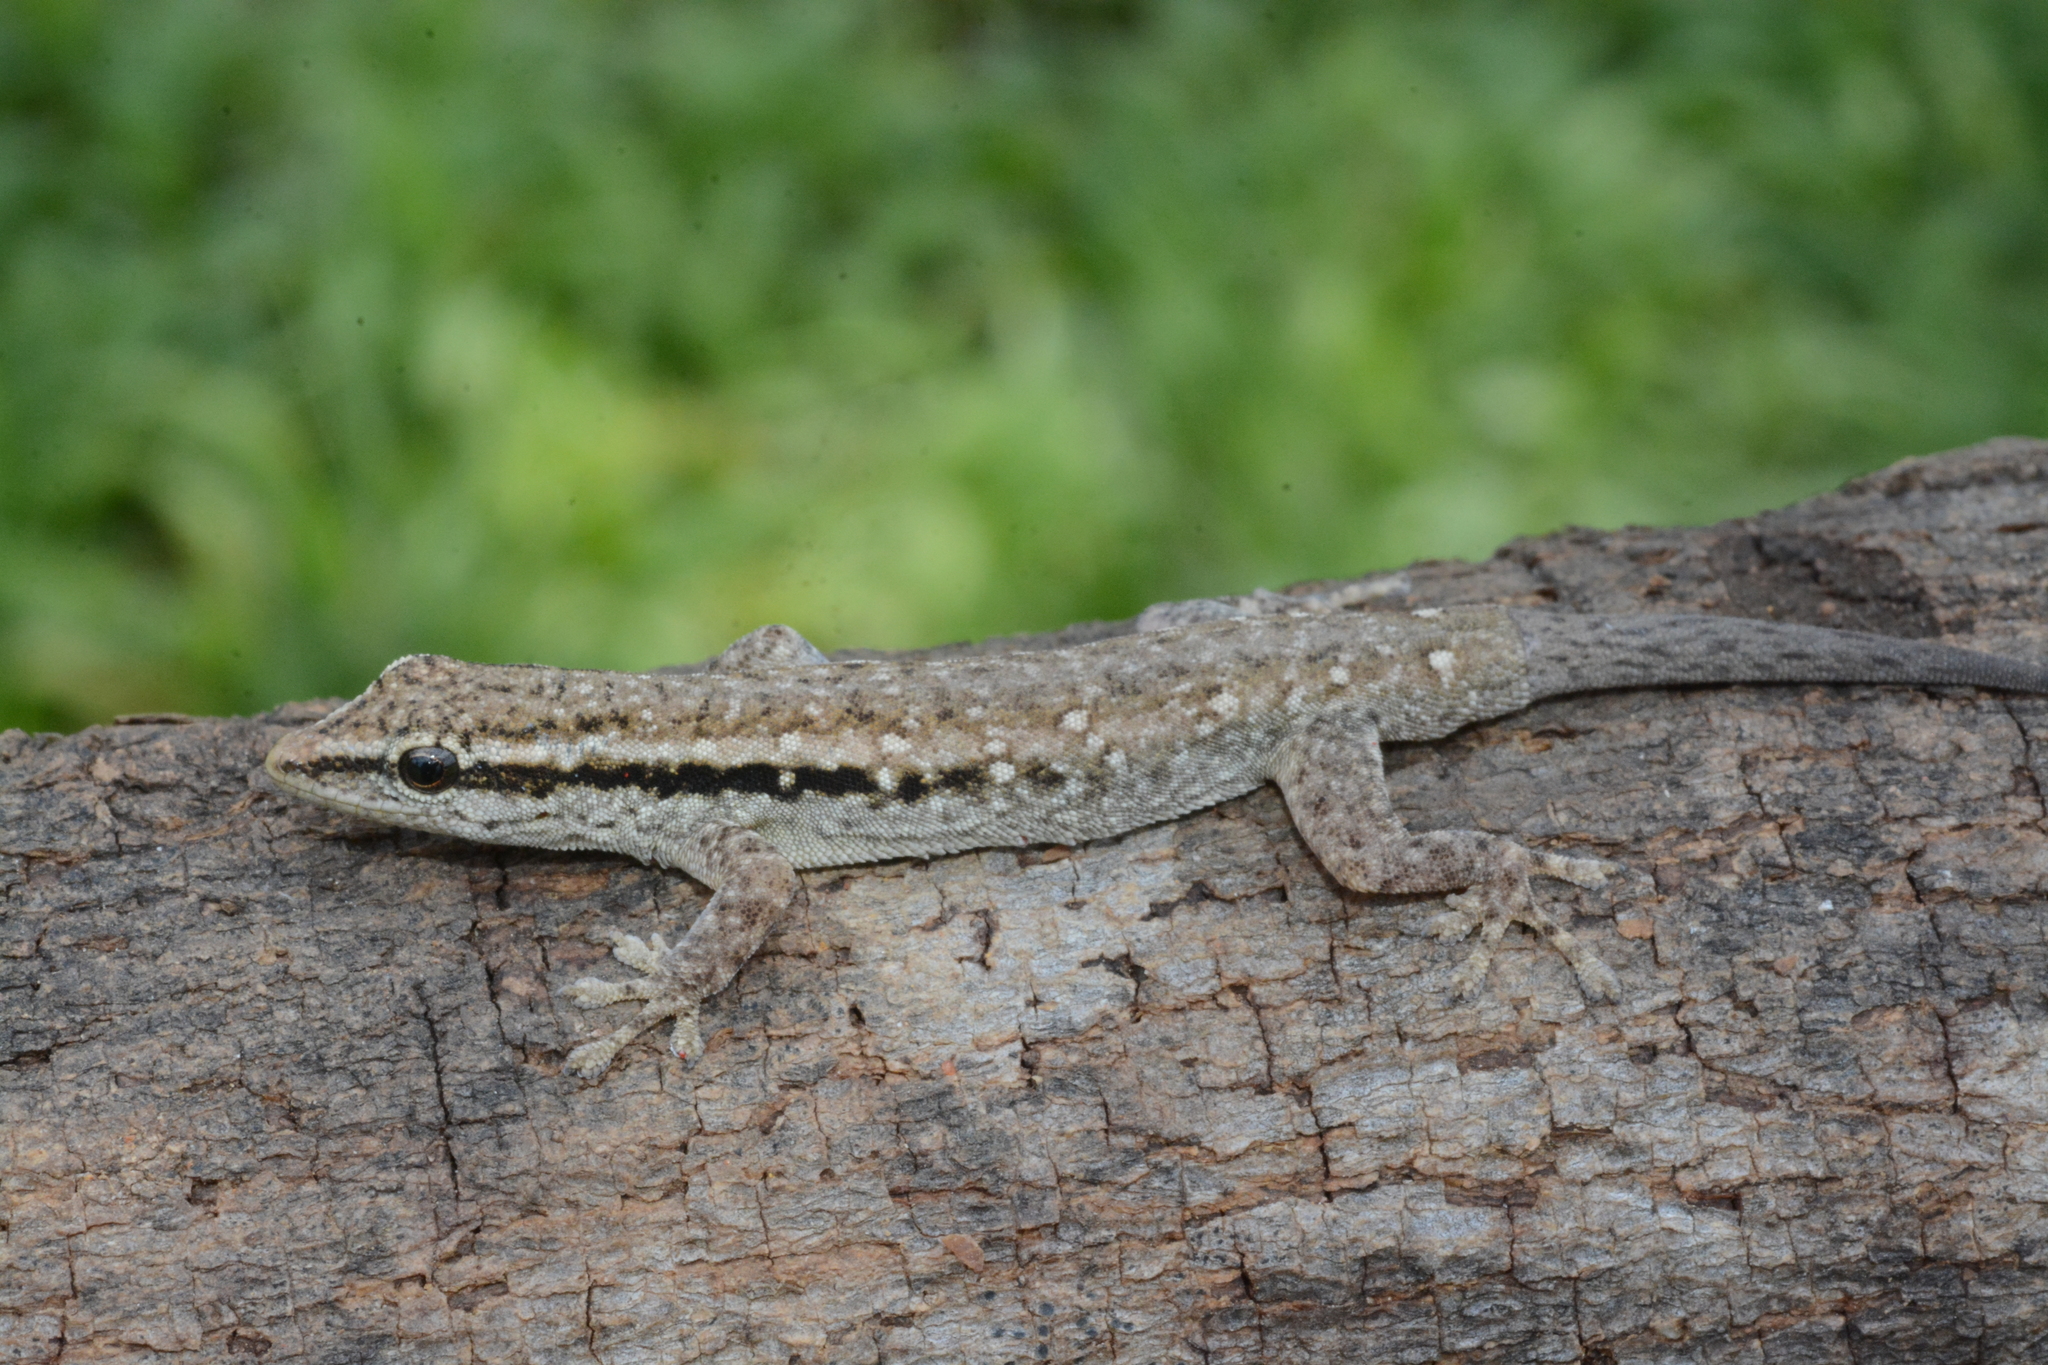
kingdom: Animalia
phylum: Chordata
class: Squamata
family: Gekkonidae
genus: Lygodactylus
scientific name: Lygodactylus capensis
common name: Cape dwarf gecko
